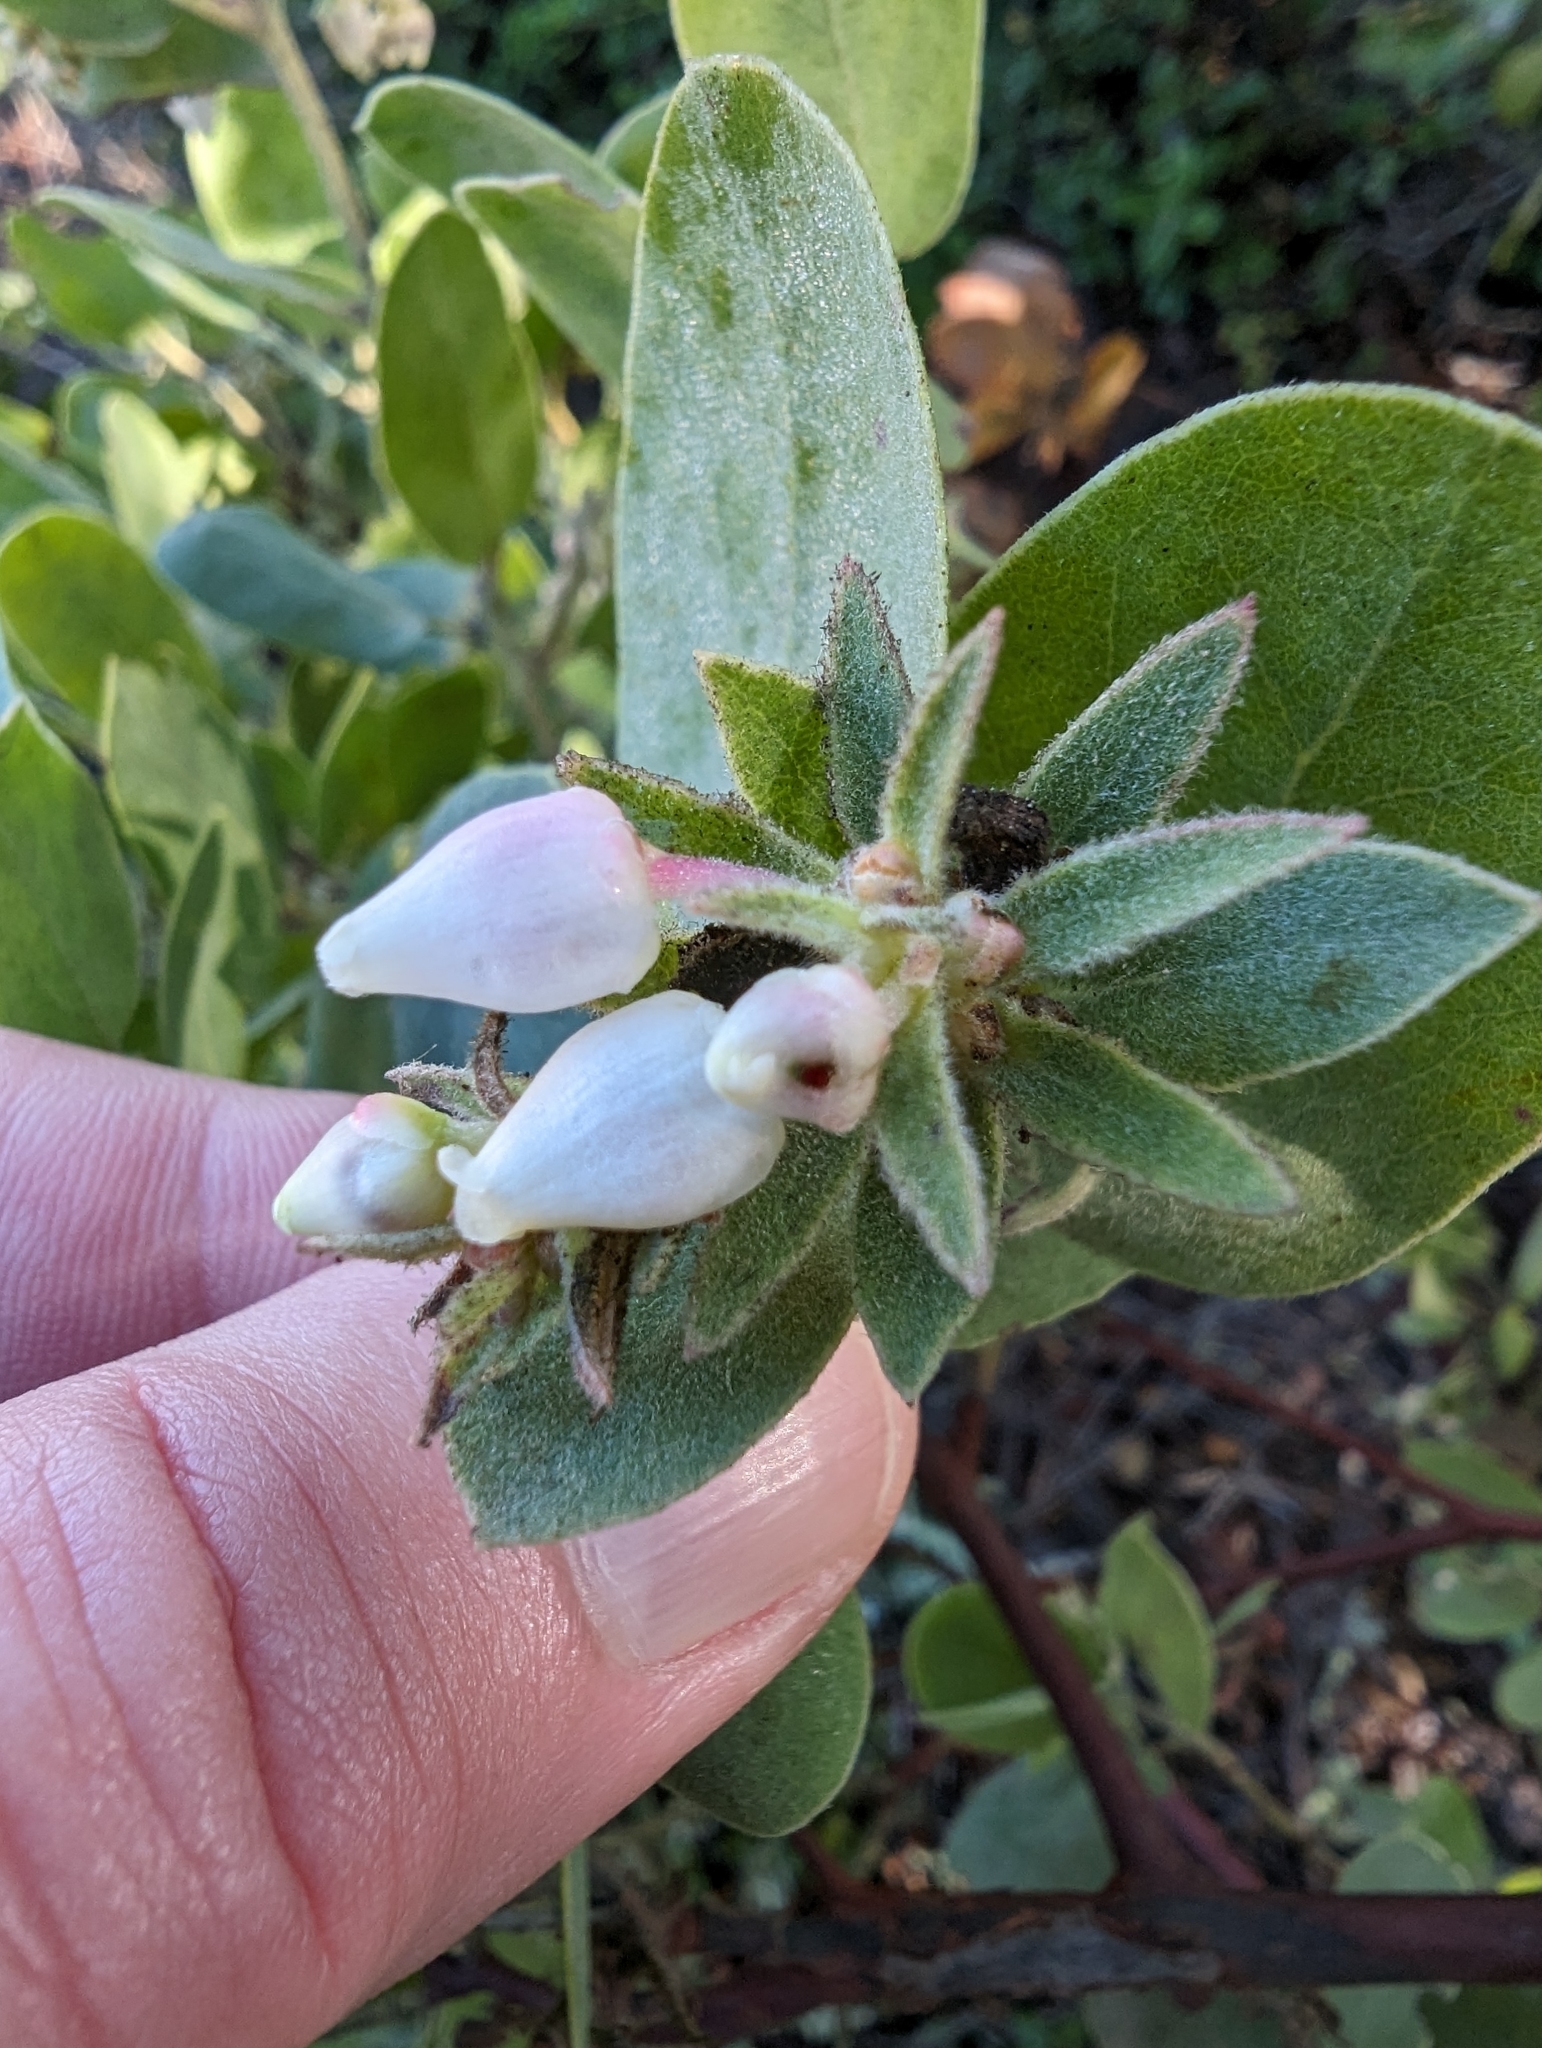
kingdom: Plantae
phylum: Tracheophyta
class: Magnoliopsida
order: Ericales
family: Ericaceae
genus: Arctostaphylos
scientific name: Arctostaphylos canescens
